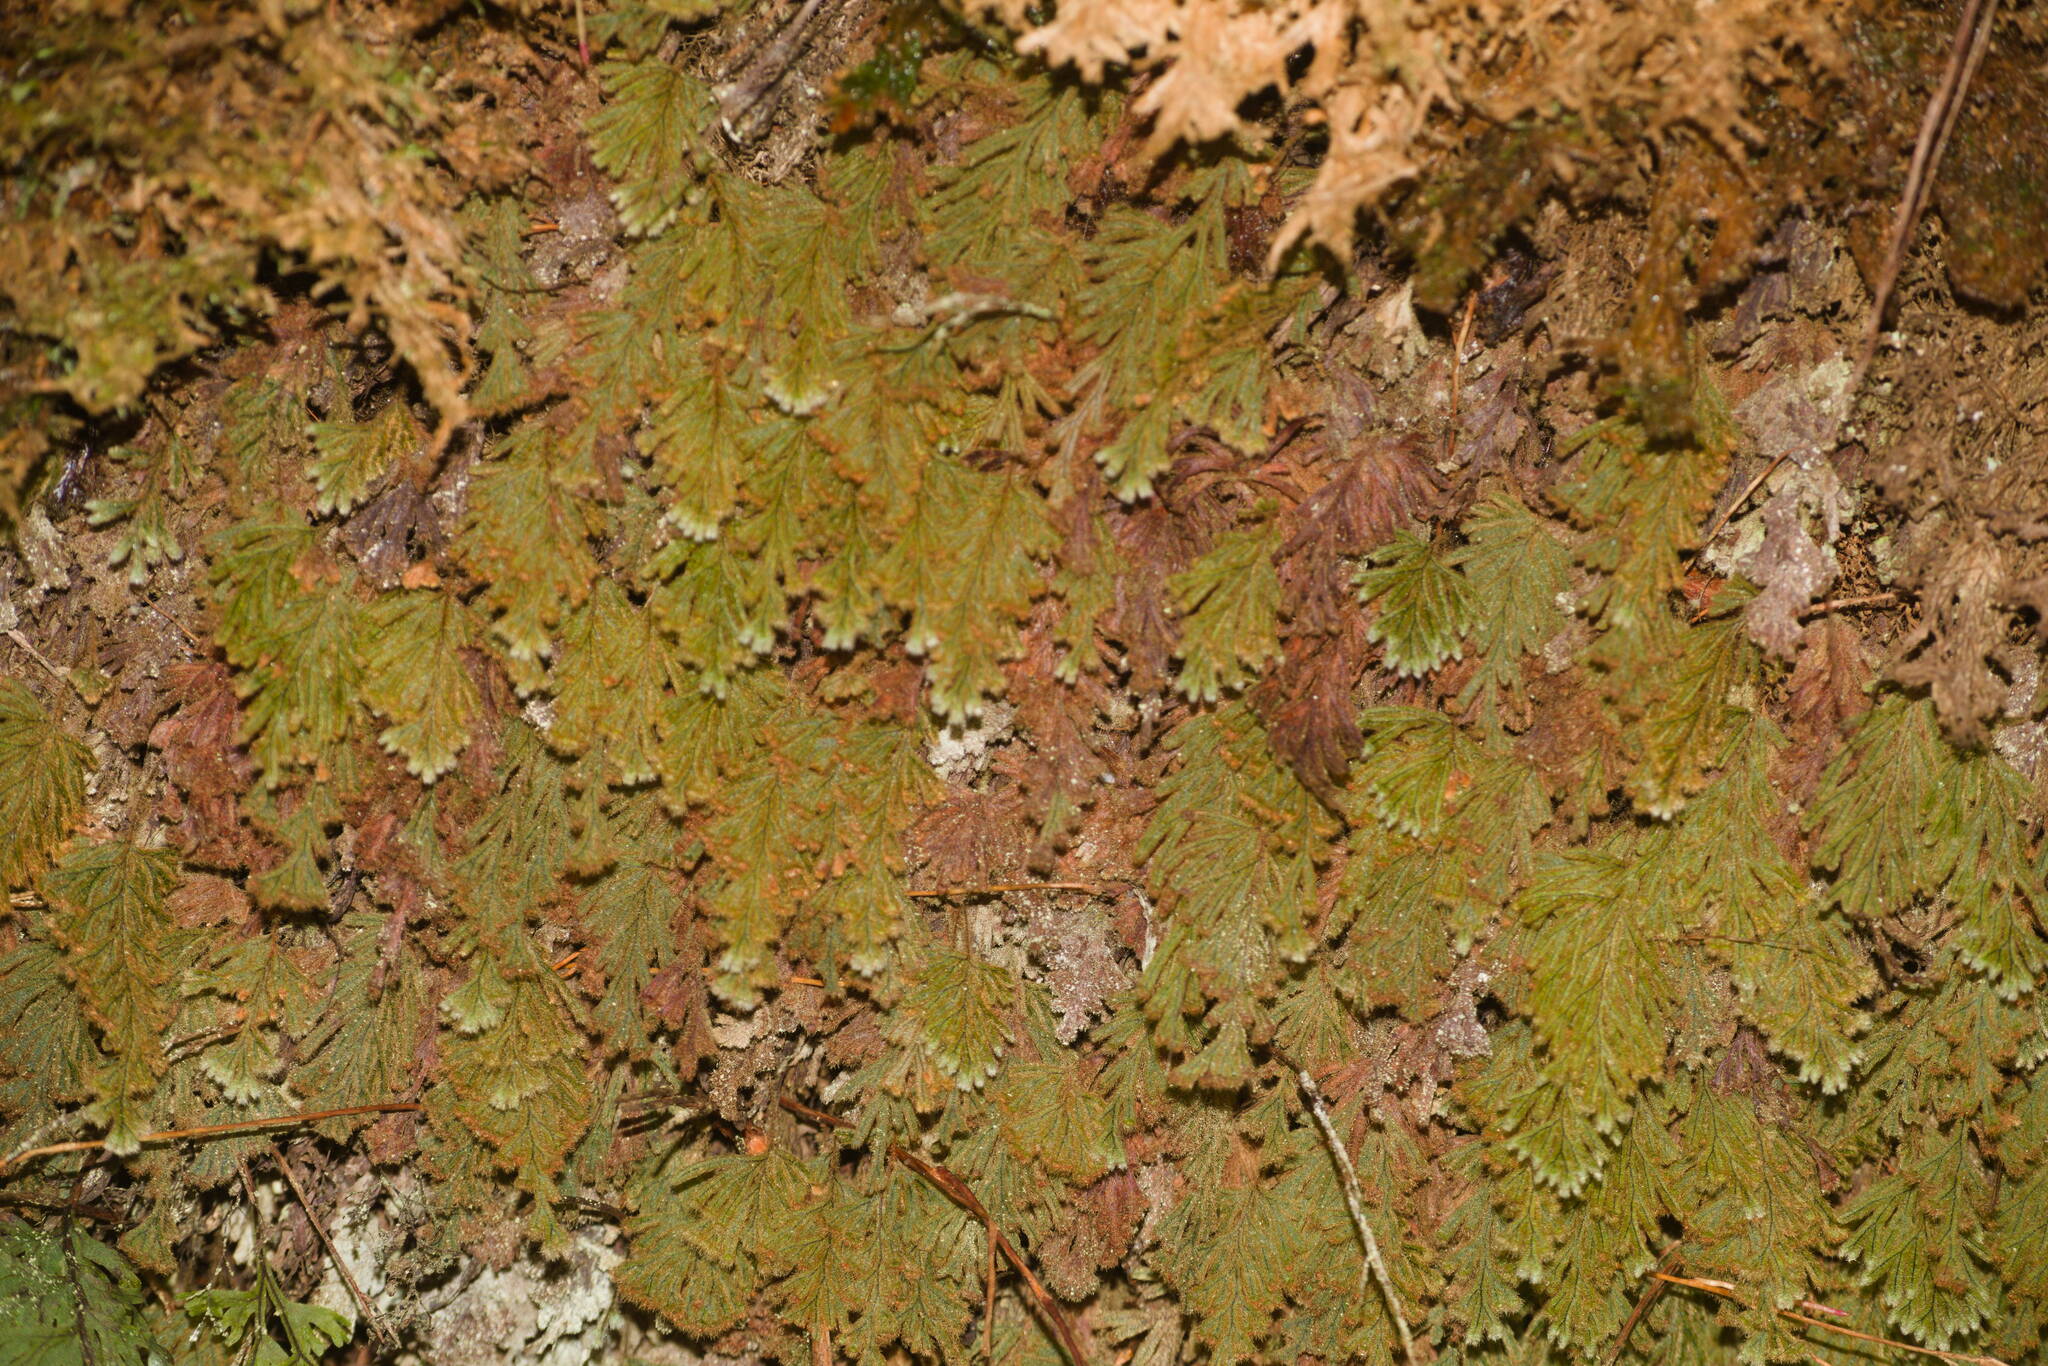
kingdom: Plantae
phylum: Tracheophyta
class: Polypodiopsida
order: Hymenophyllales
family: Hymenophyllaceae
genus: Hymenophyllum
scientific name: Hymenophyllum obtusum
